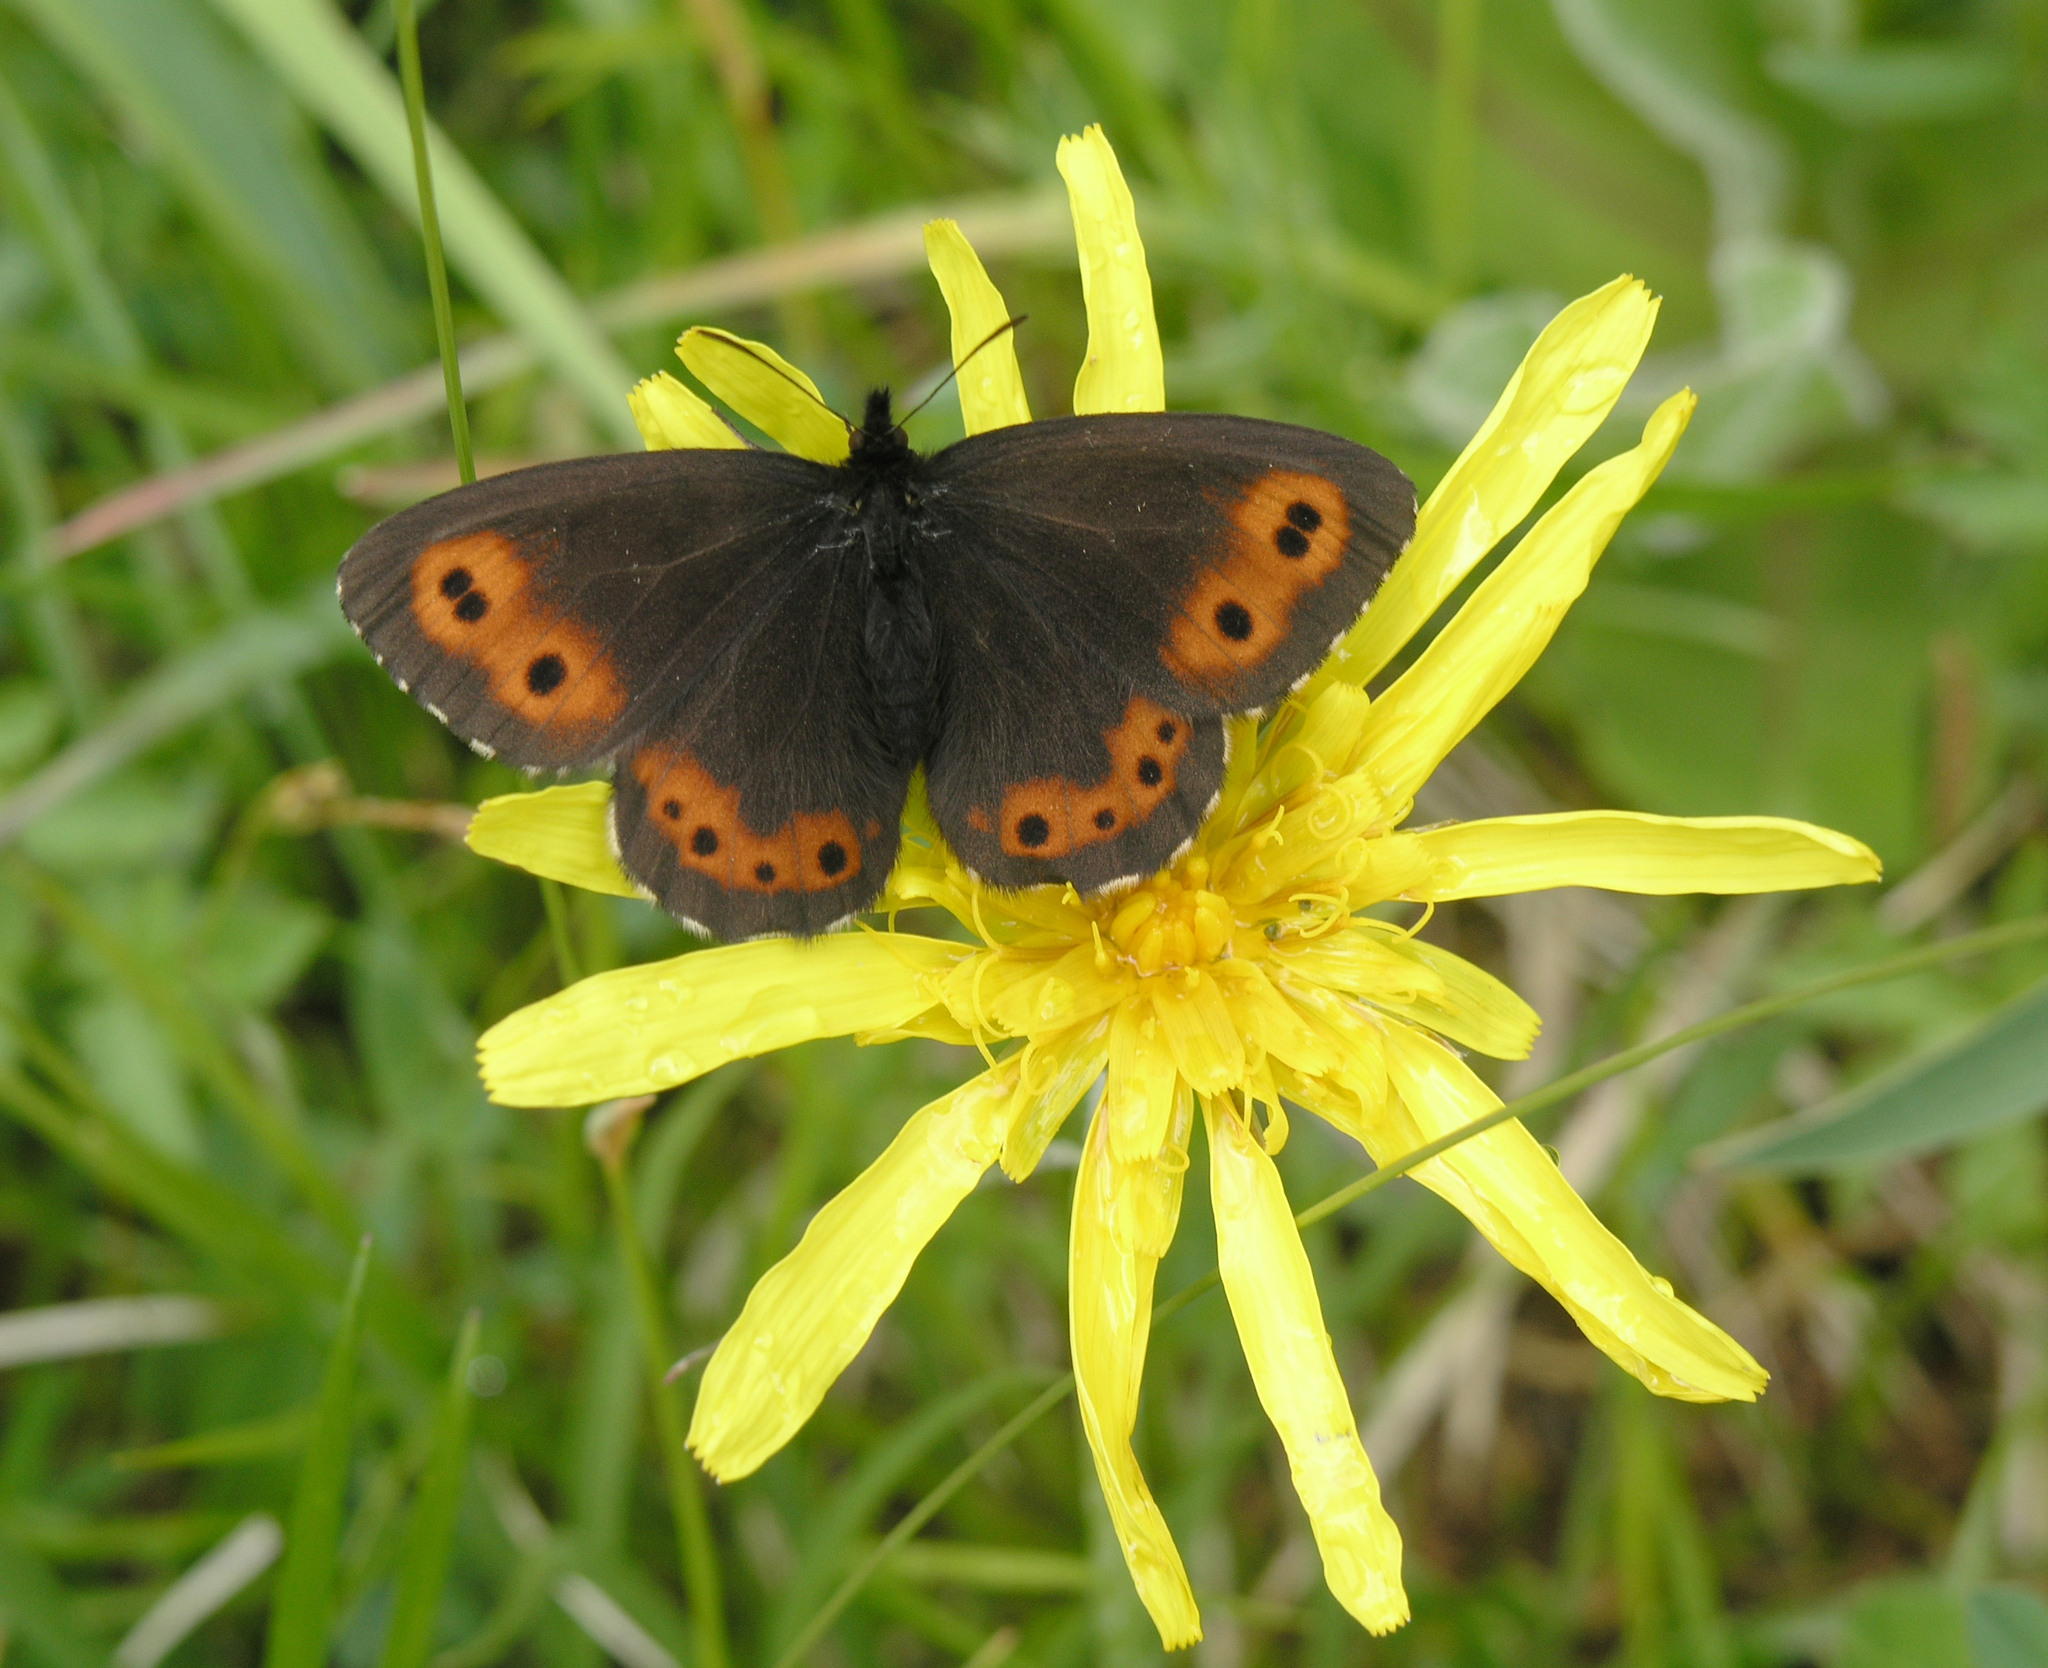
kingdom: Animalia
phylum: Arthropoda
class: Insecta
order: Lepidoptera
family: Nymphalidae
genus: Erebia
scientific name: Erebia jeniseiensis
